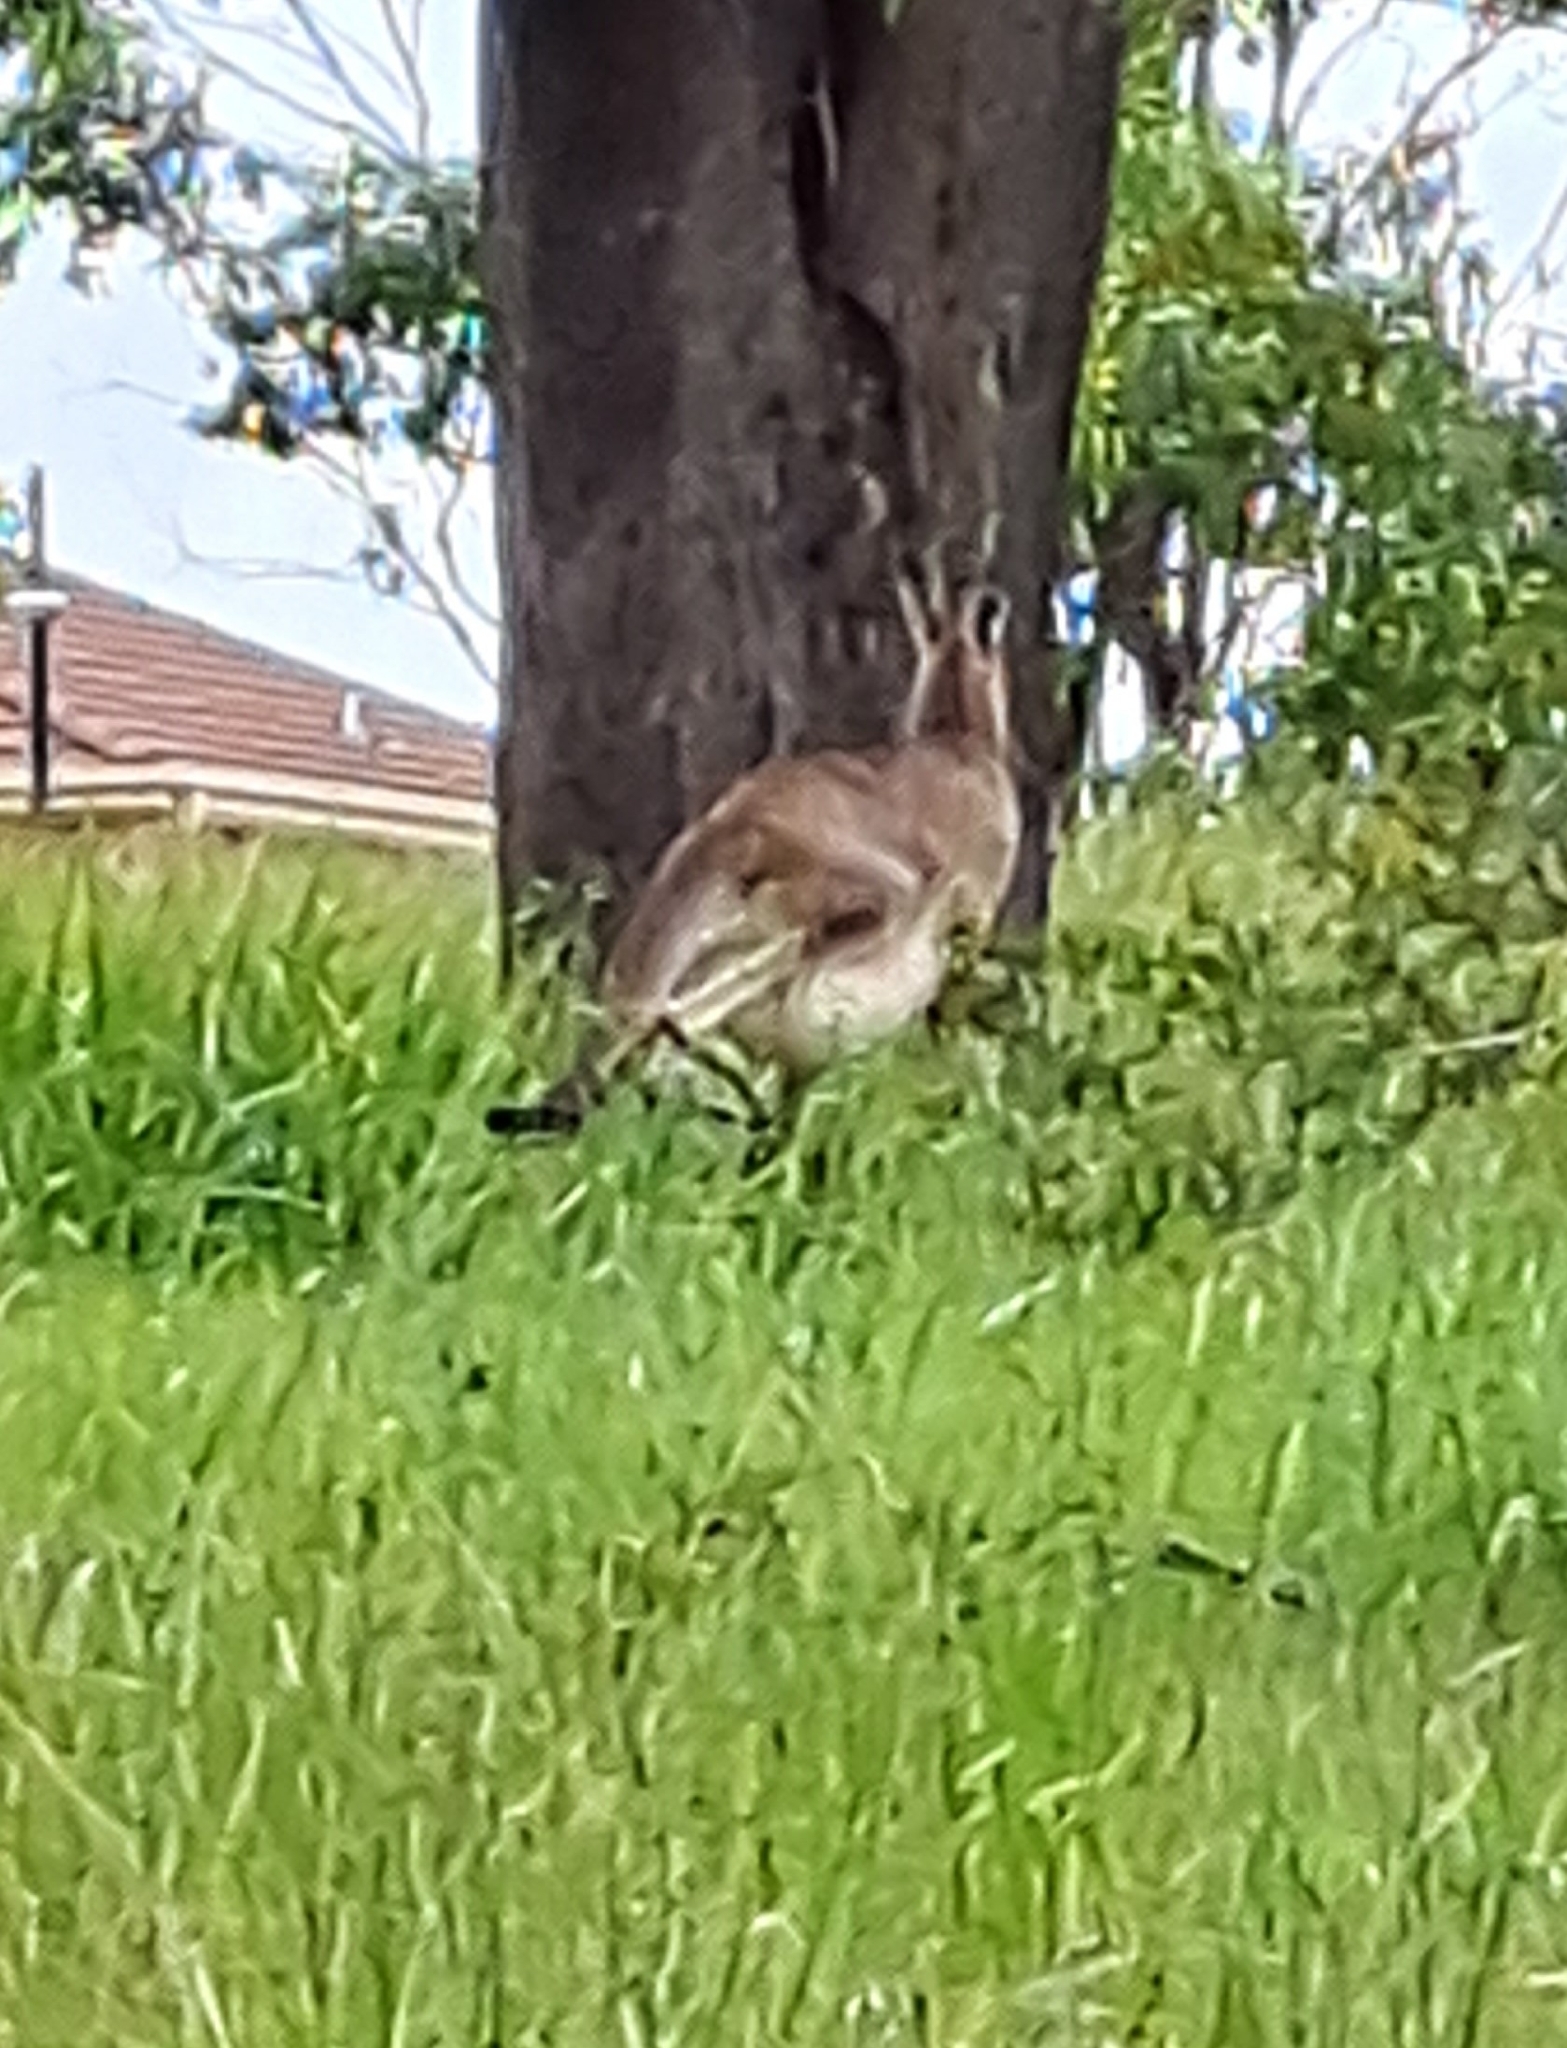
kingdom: Animalia
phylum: Chordata
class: Mammalia
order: Diprotodontia
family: Macropodidae
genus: Macropus
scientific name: Macropus giganteus
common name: Eastern grey kangaroo
